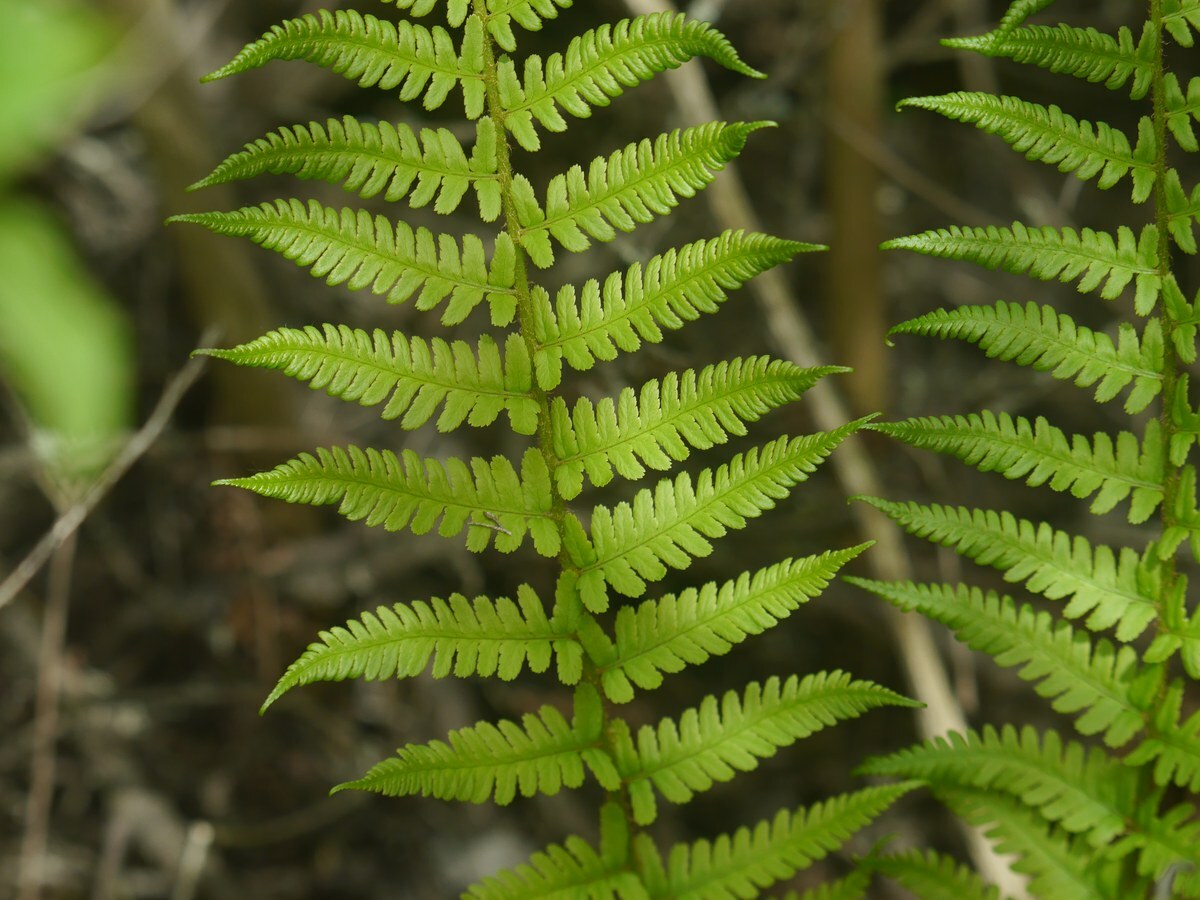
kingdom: Plantae
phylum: Tracheophyta
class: Polypodiopsida
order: Polypodiales
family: Dryopteridaceae
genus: Dryopteris
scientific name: Dryopteris filix-mas
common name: Male fern
